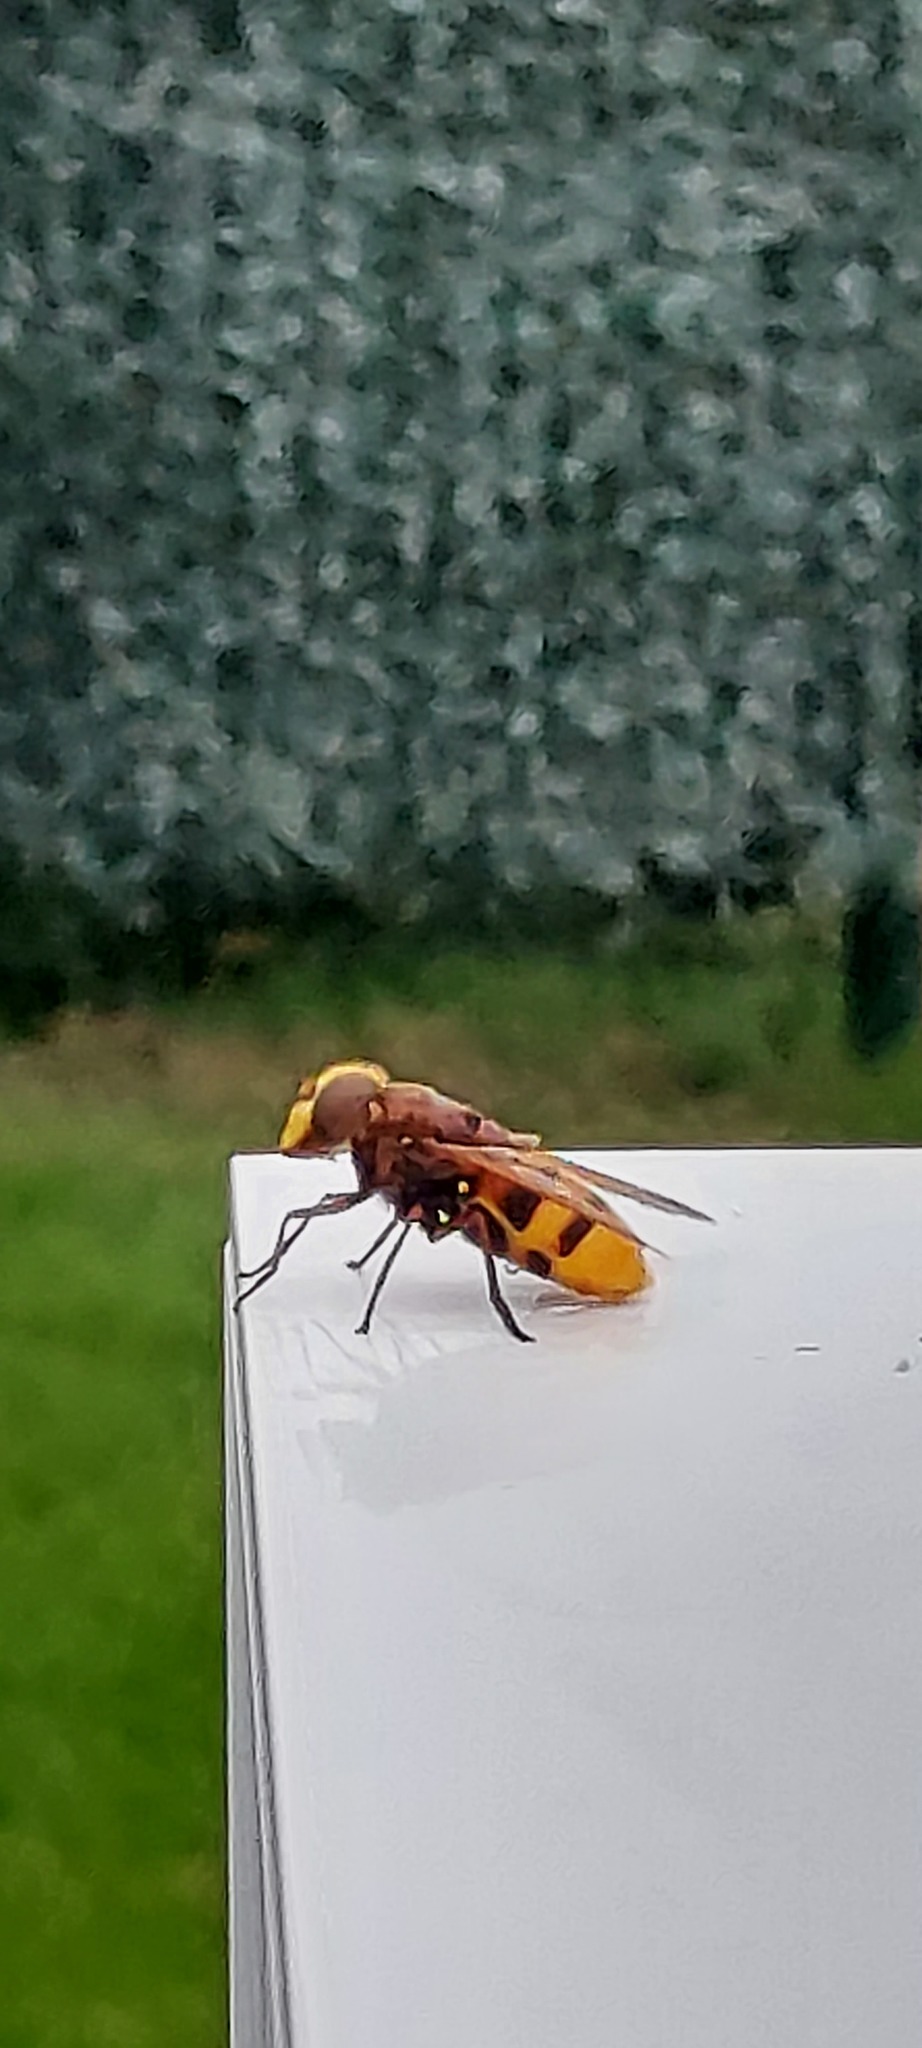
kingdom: Animalia
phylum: Arthropoda
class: Insecta
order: Diptera
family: Syrphidae
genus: Volucella
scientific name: Volucella zonaria
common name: Hornet hoverfly
